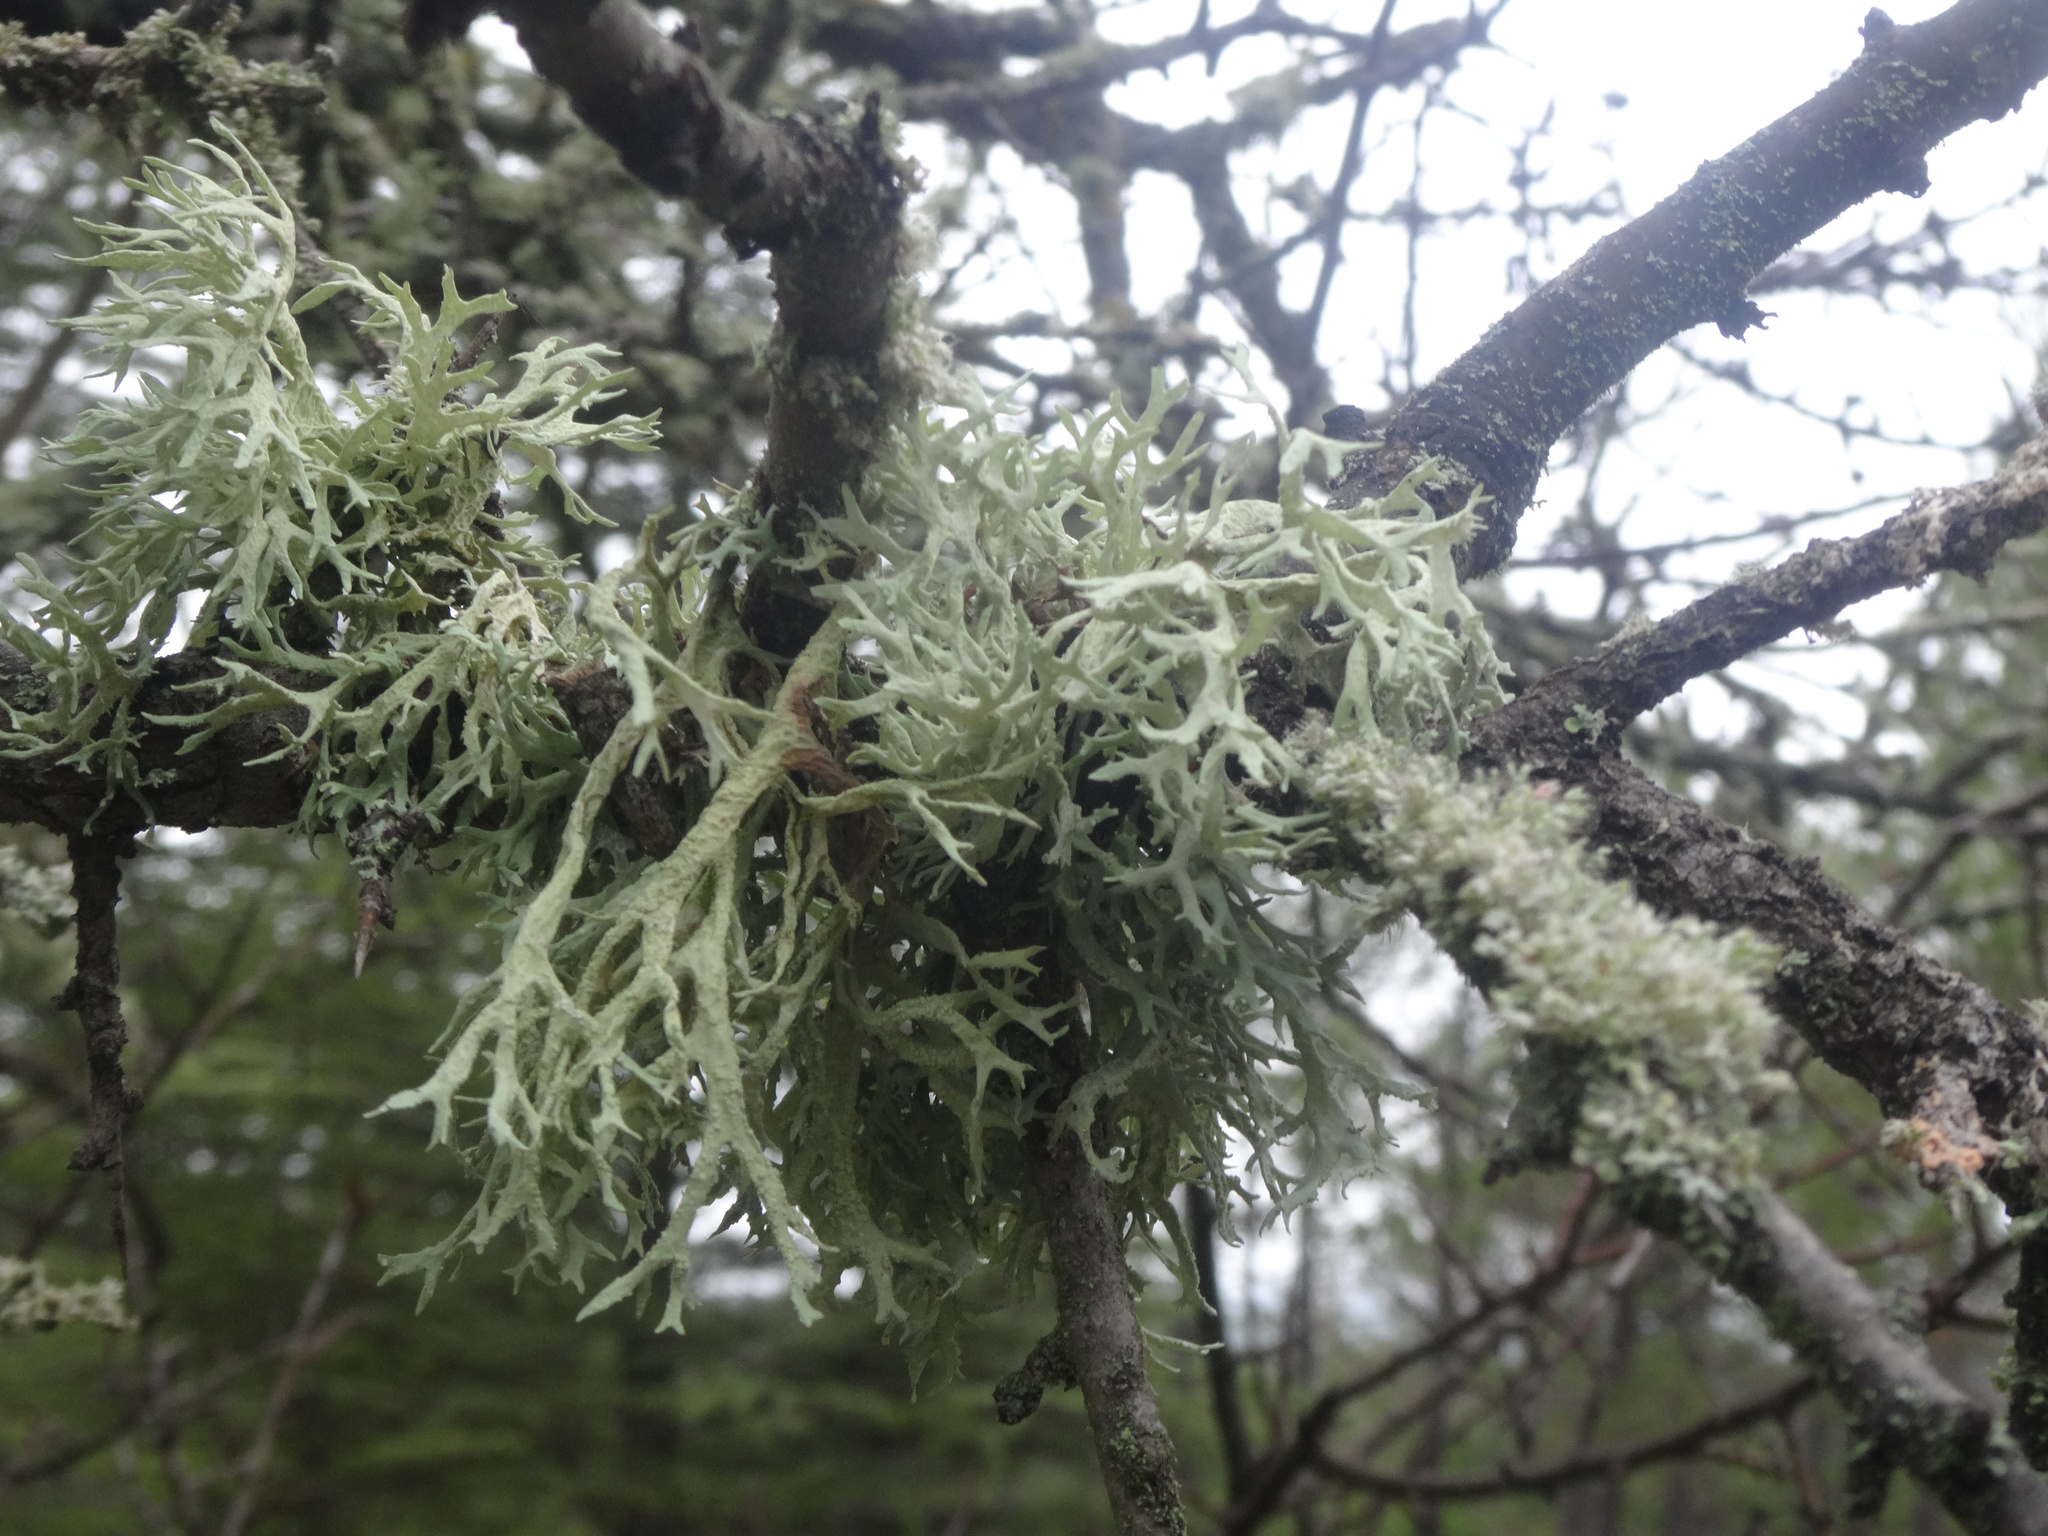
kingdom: Fungi
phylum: Ascomycota
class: Lecanoromycetes
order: Lecanorales
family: Parmeliaceae
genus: Evernia
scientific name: Evernia prunastri
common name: Oak moss
